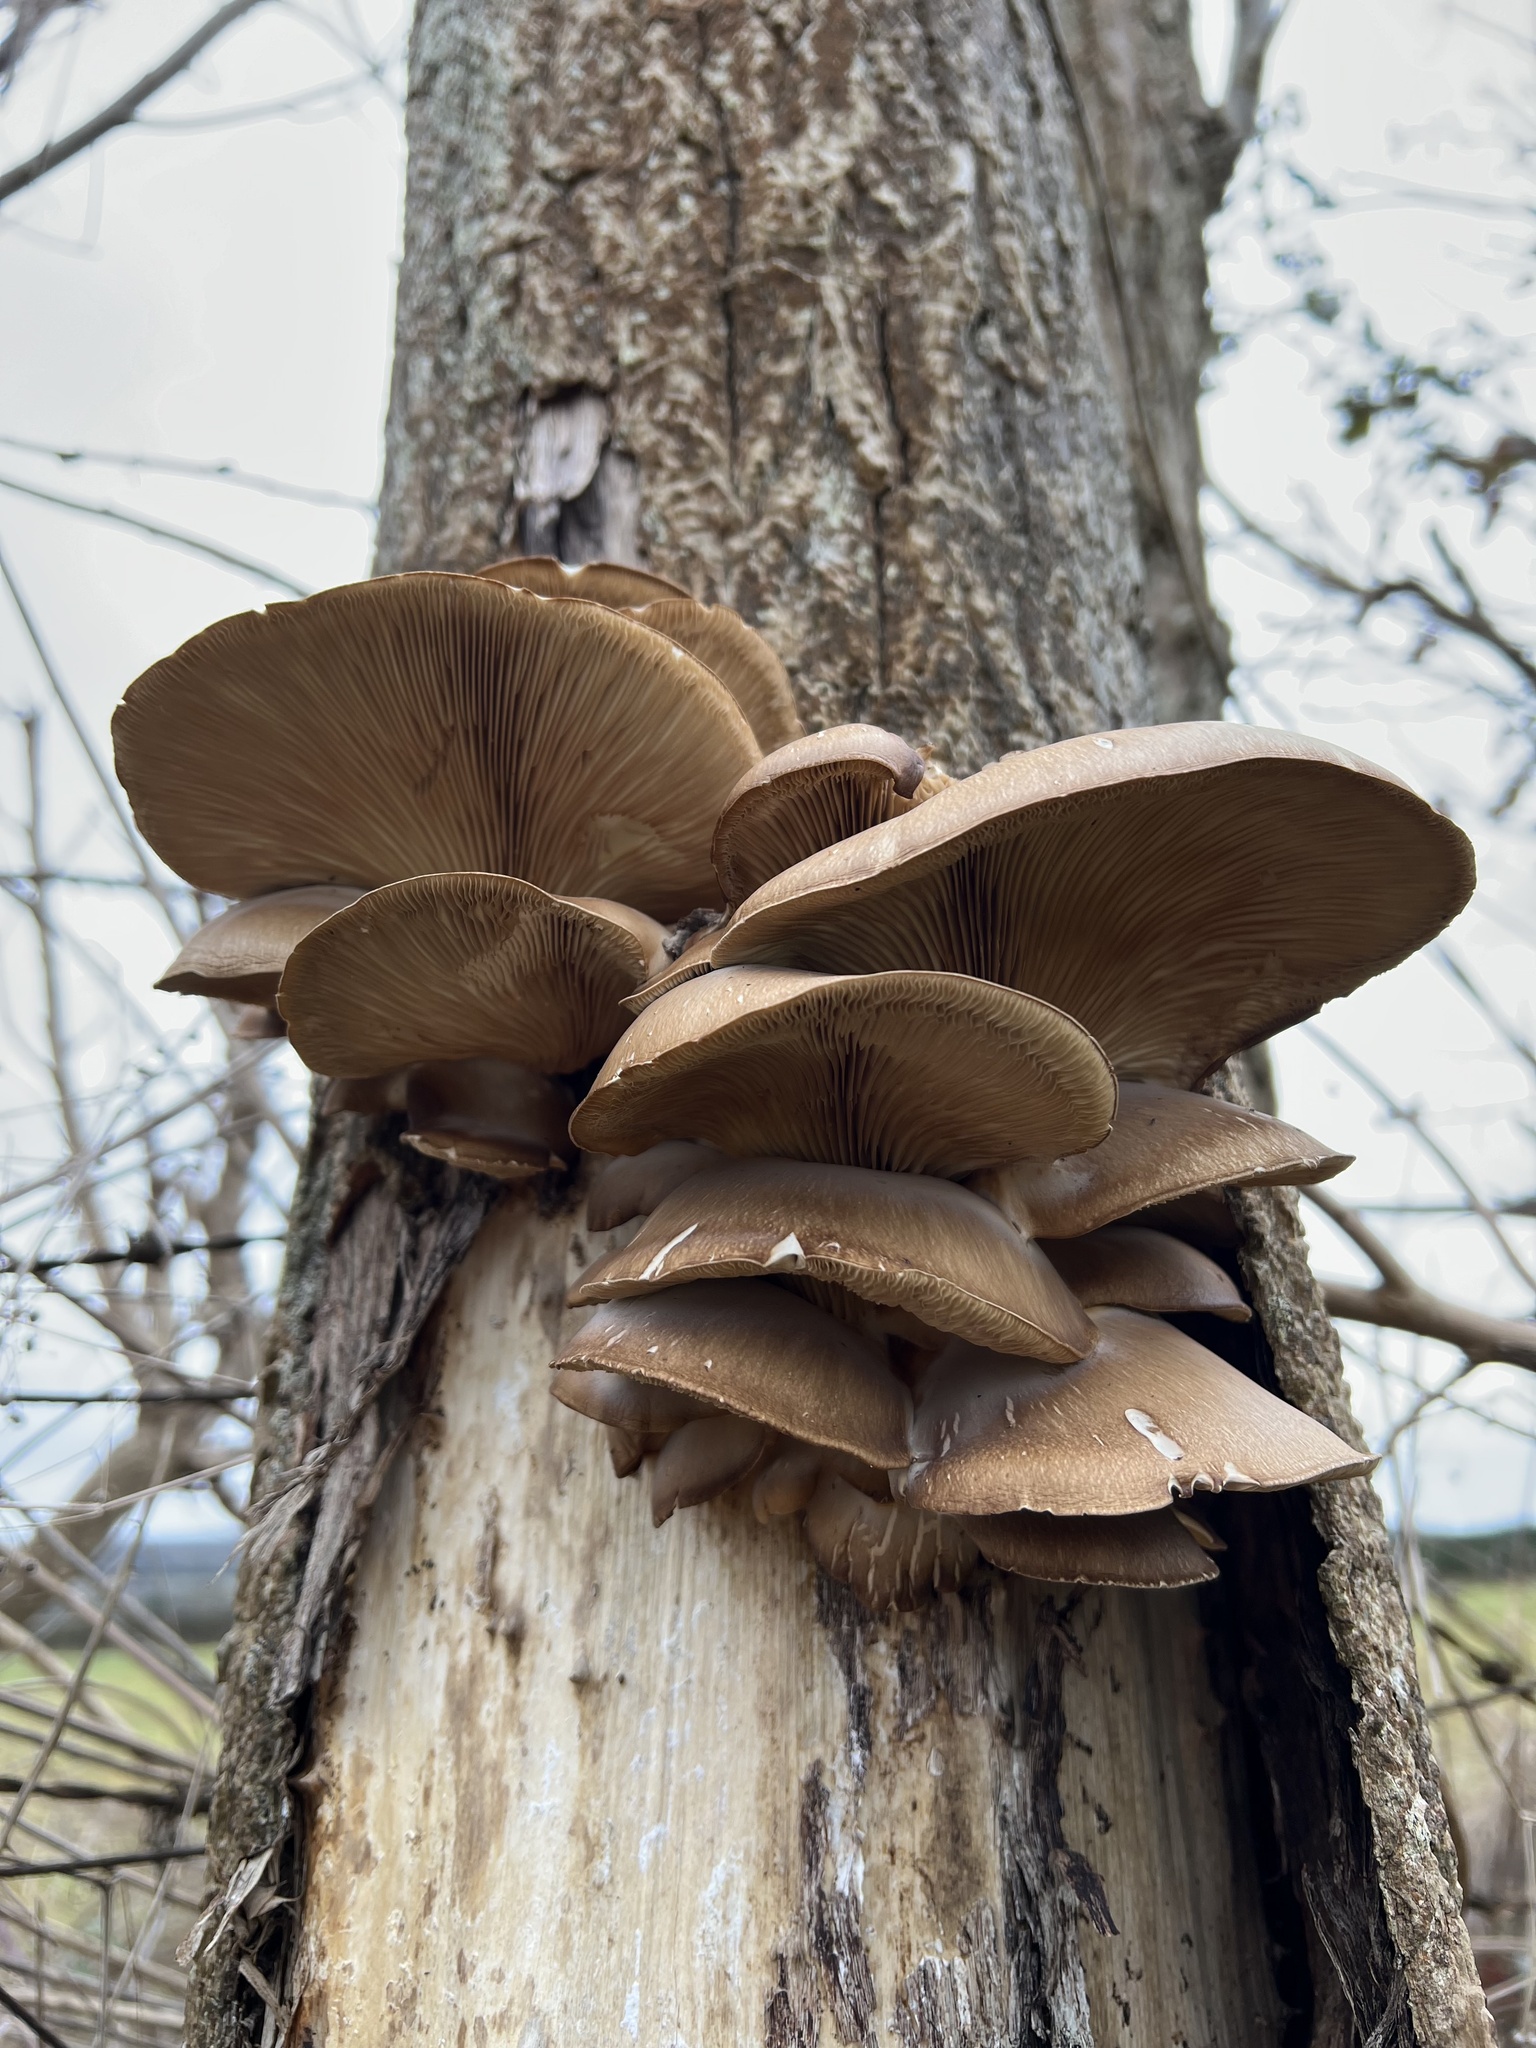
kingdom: Fungi
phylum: Basidiomycota
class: Agaricomycetes
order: Agaricales
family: Pleurotaceae
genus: Pleurotus
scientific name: Pleurotus ostreatus
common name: Oyster mushroom
